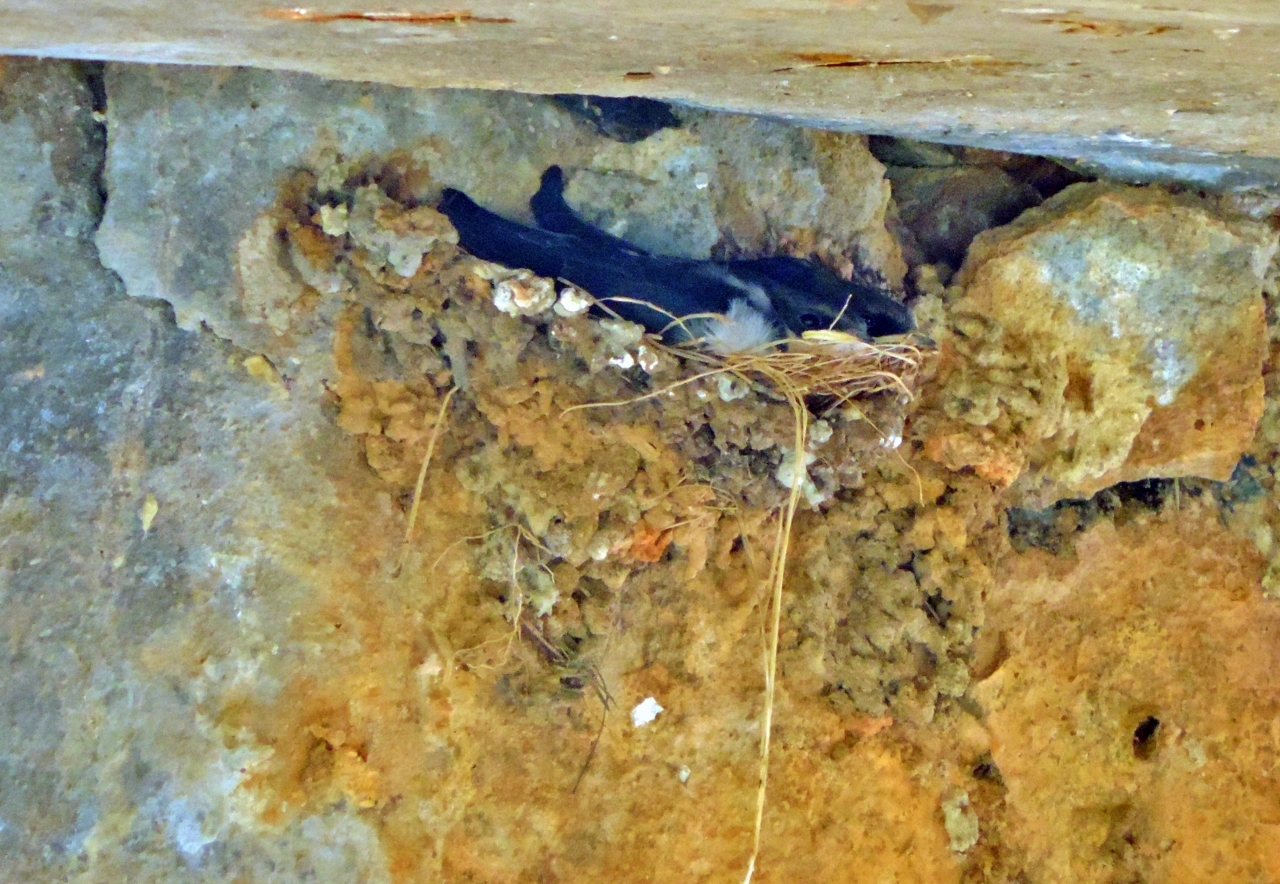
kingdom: Animalia
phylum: Chordata
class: Aves
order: Passeriformes
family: Hirundinidae
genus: Hirundo
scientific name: Hirundo smithii
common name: Wire-tailed swallow
